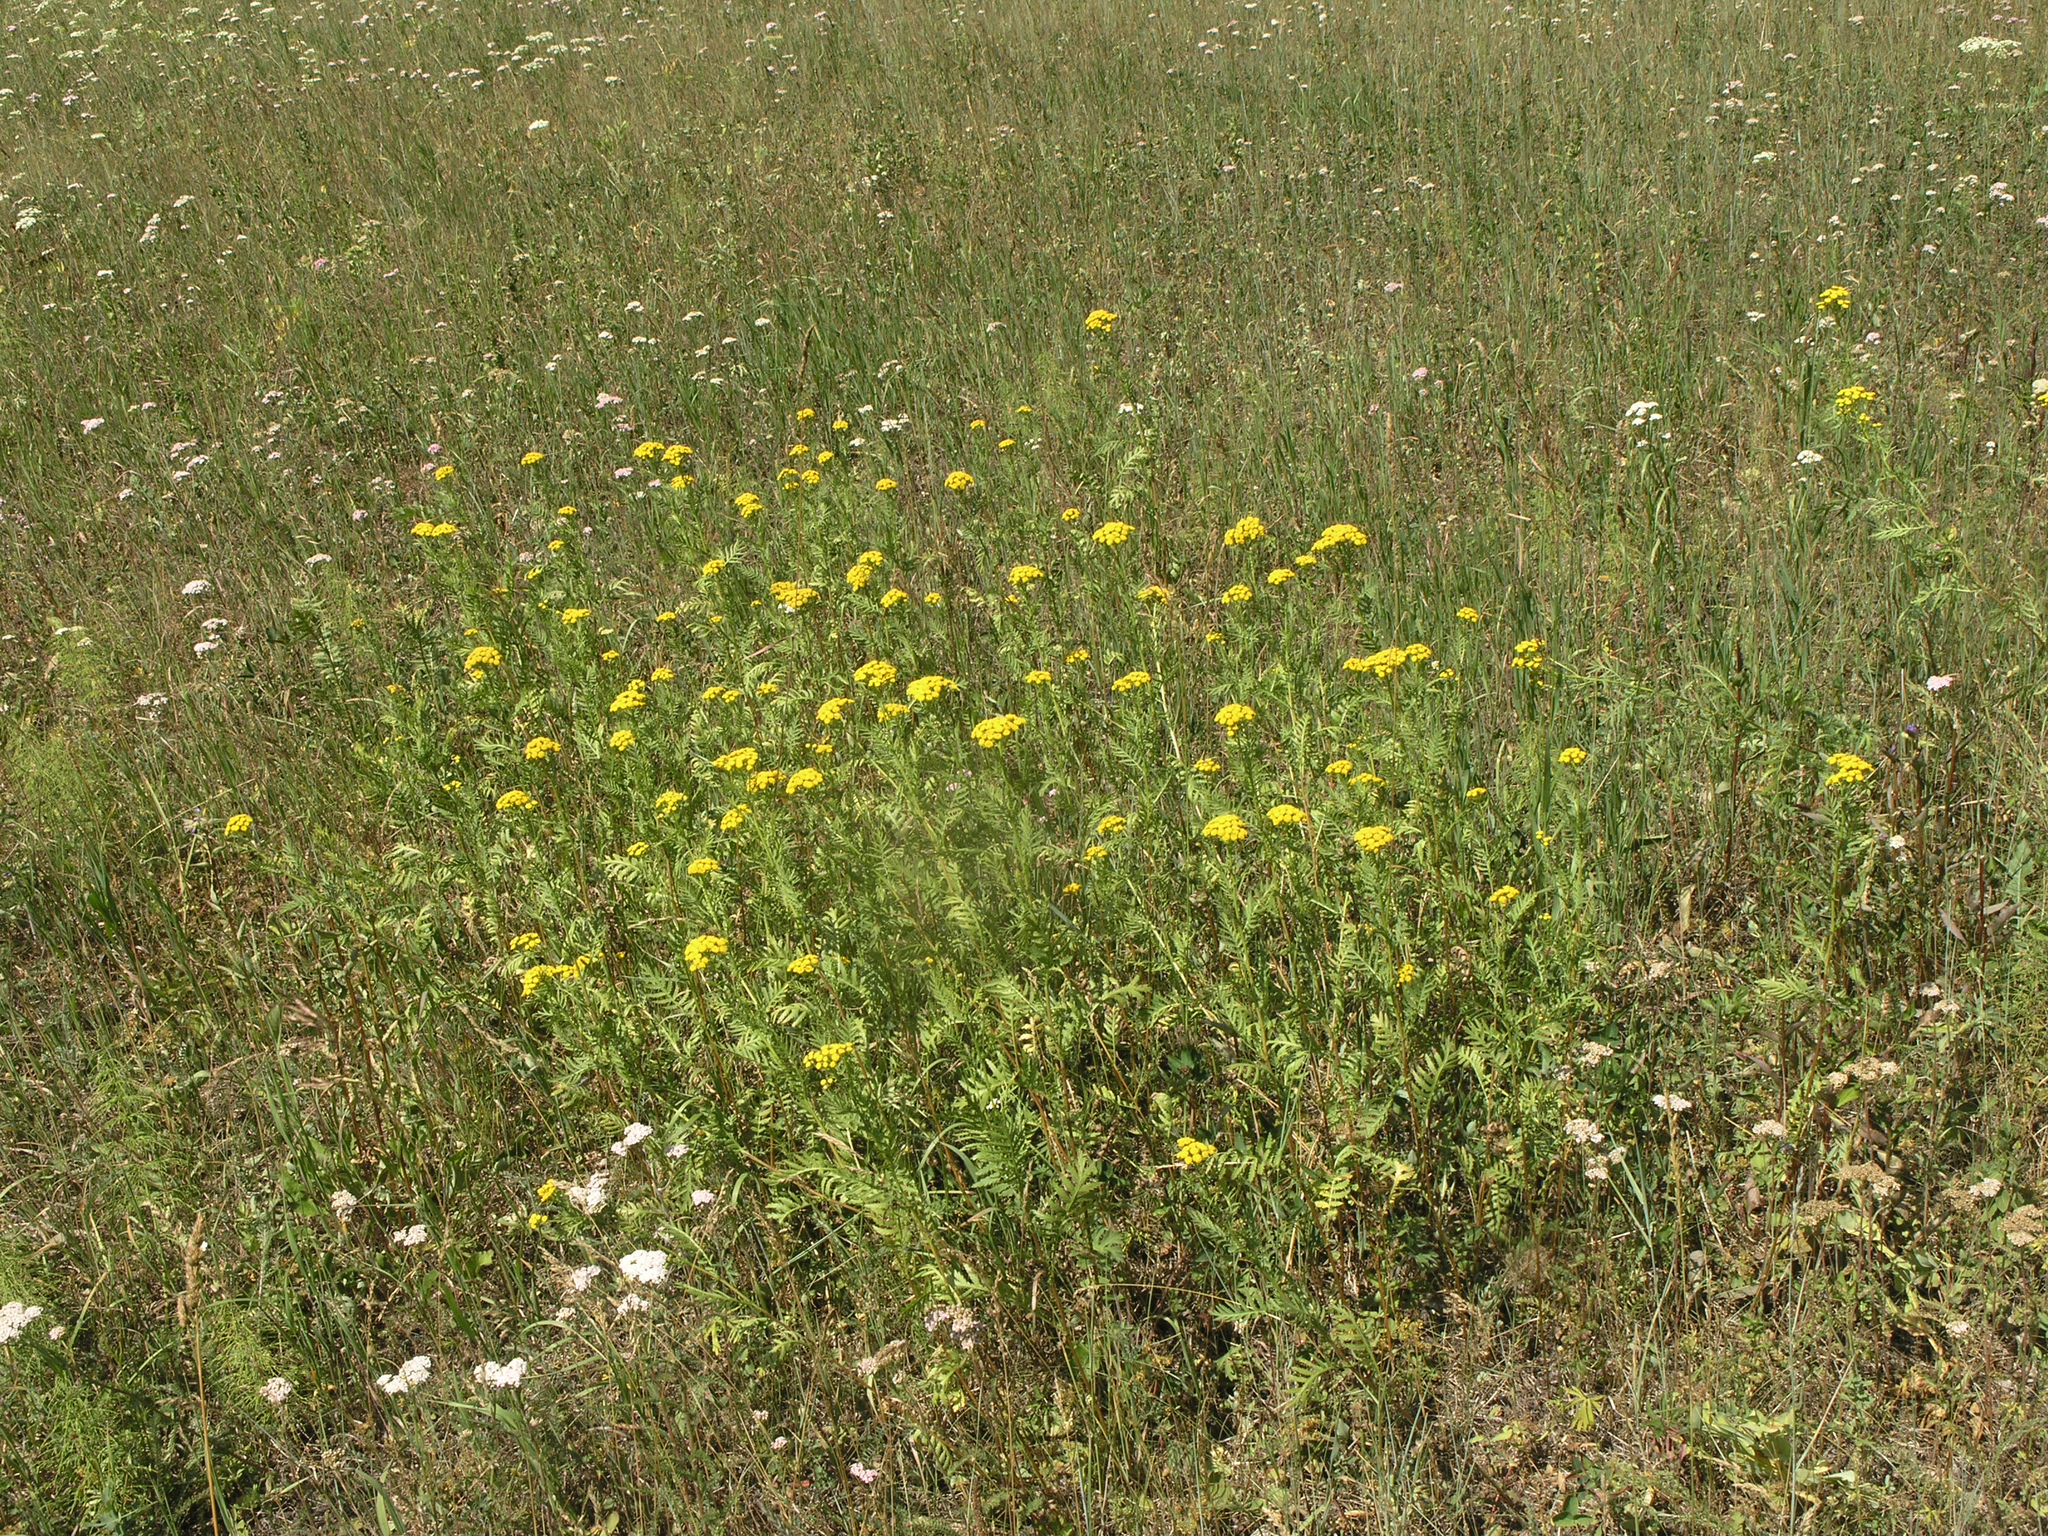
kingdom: Plantae
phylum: Tracheophyta
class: Magnoliopsida
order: Asterales
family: Asteraceae
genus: Tanacetum
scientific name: Tanacetum vulgare
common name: Common tansy
